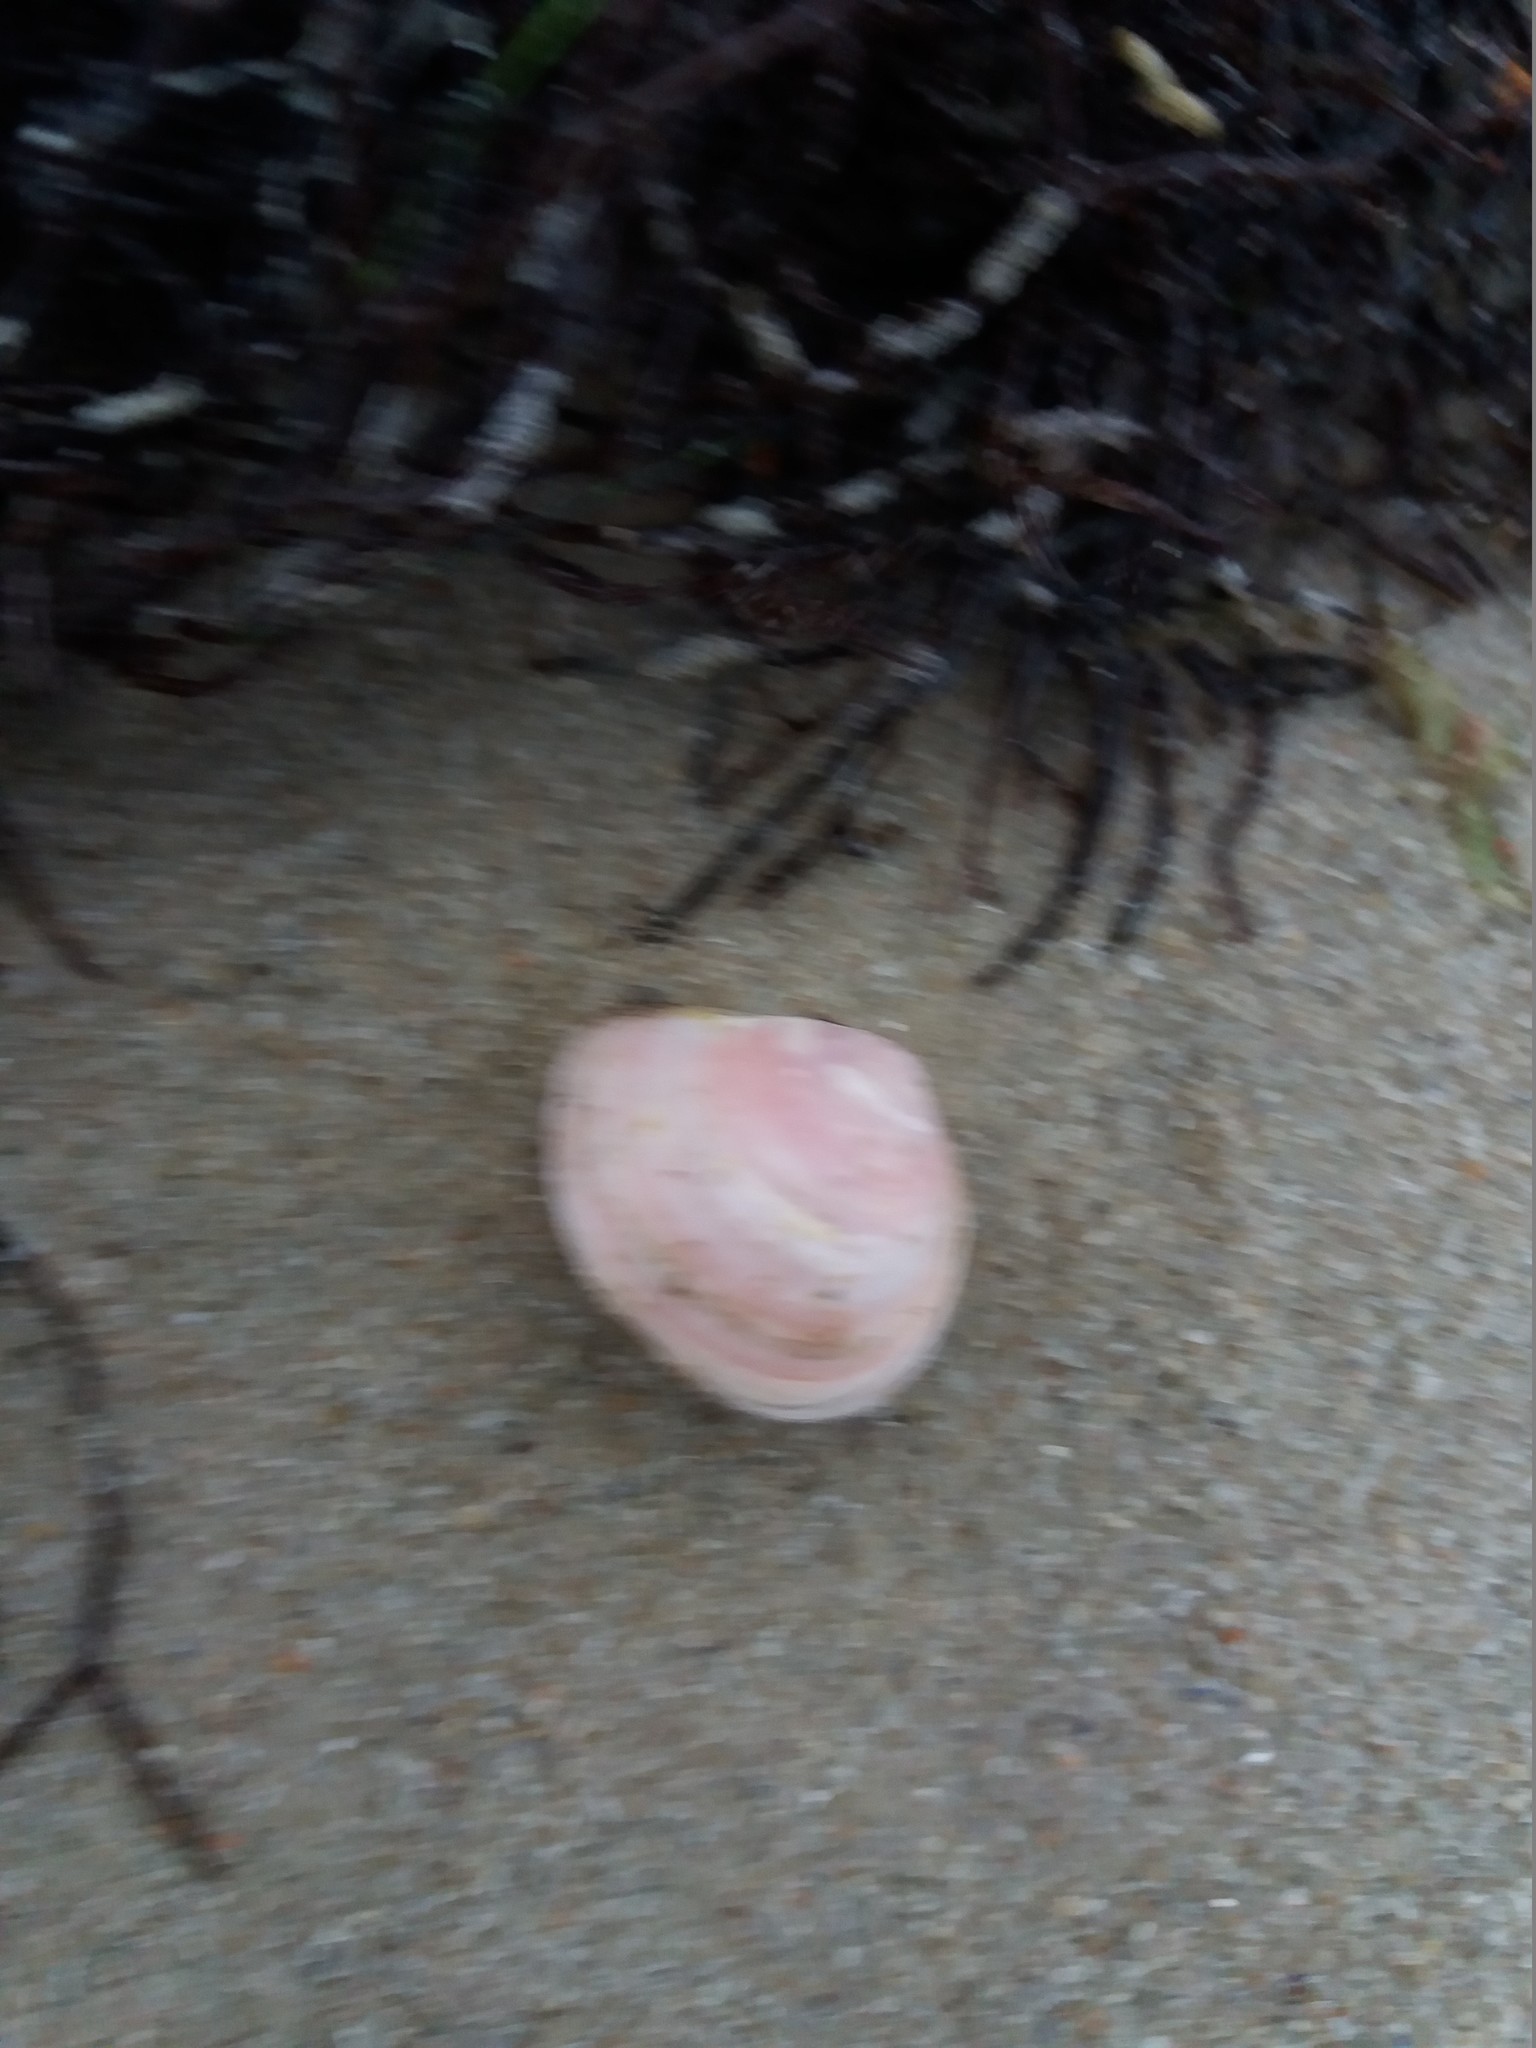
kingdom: Animalia
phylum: Mollusca
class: Bivalvia
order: Cardiida
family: Tellinidae
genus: Macoma
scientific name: Macoma balthica
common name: Baltic tellin
